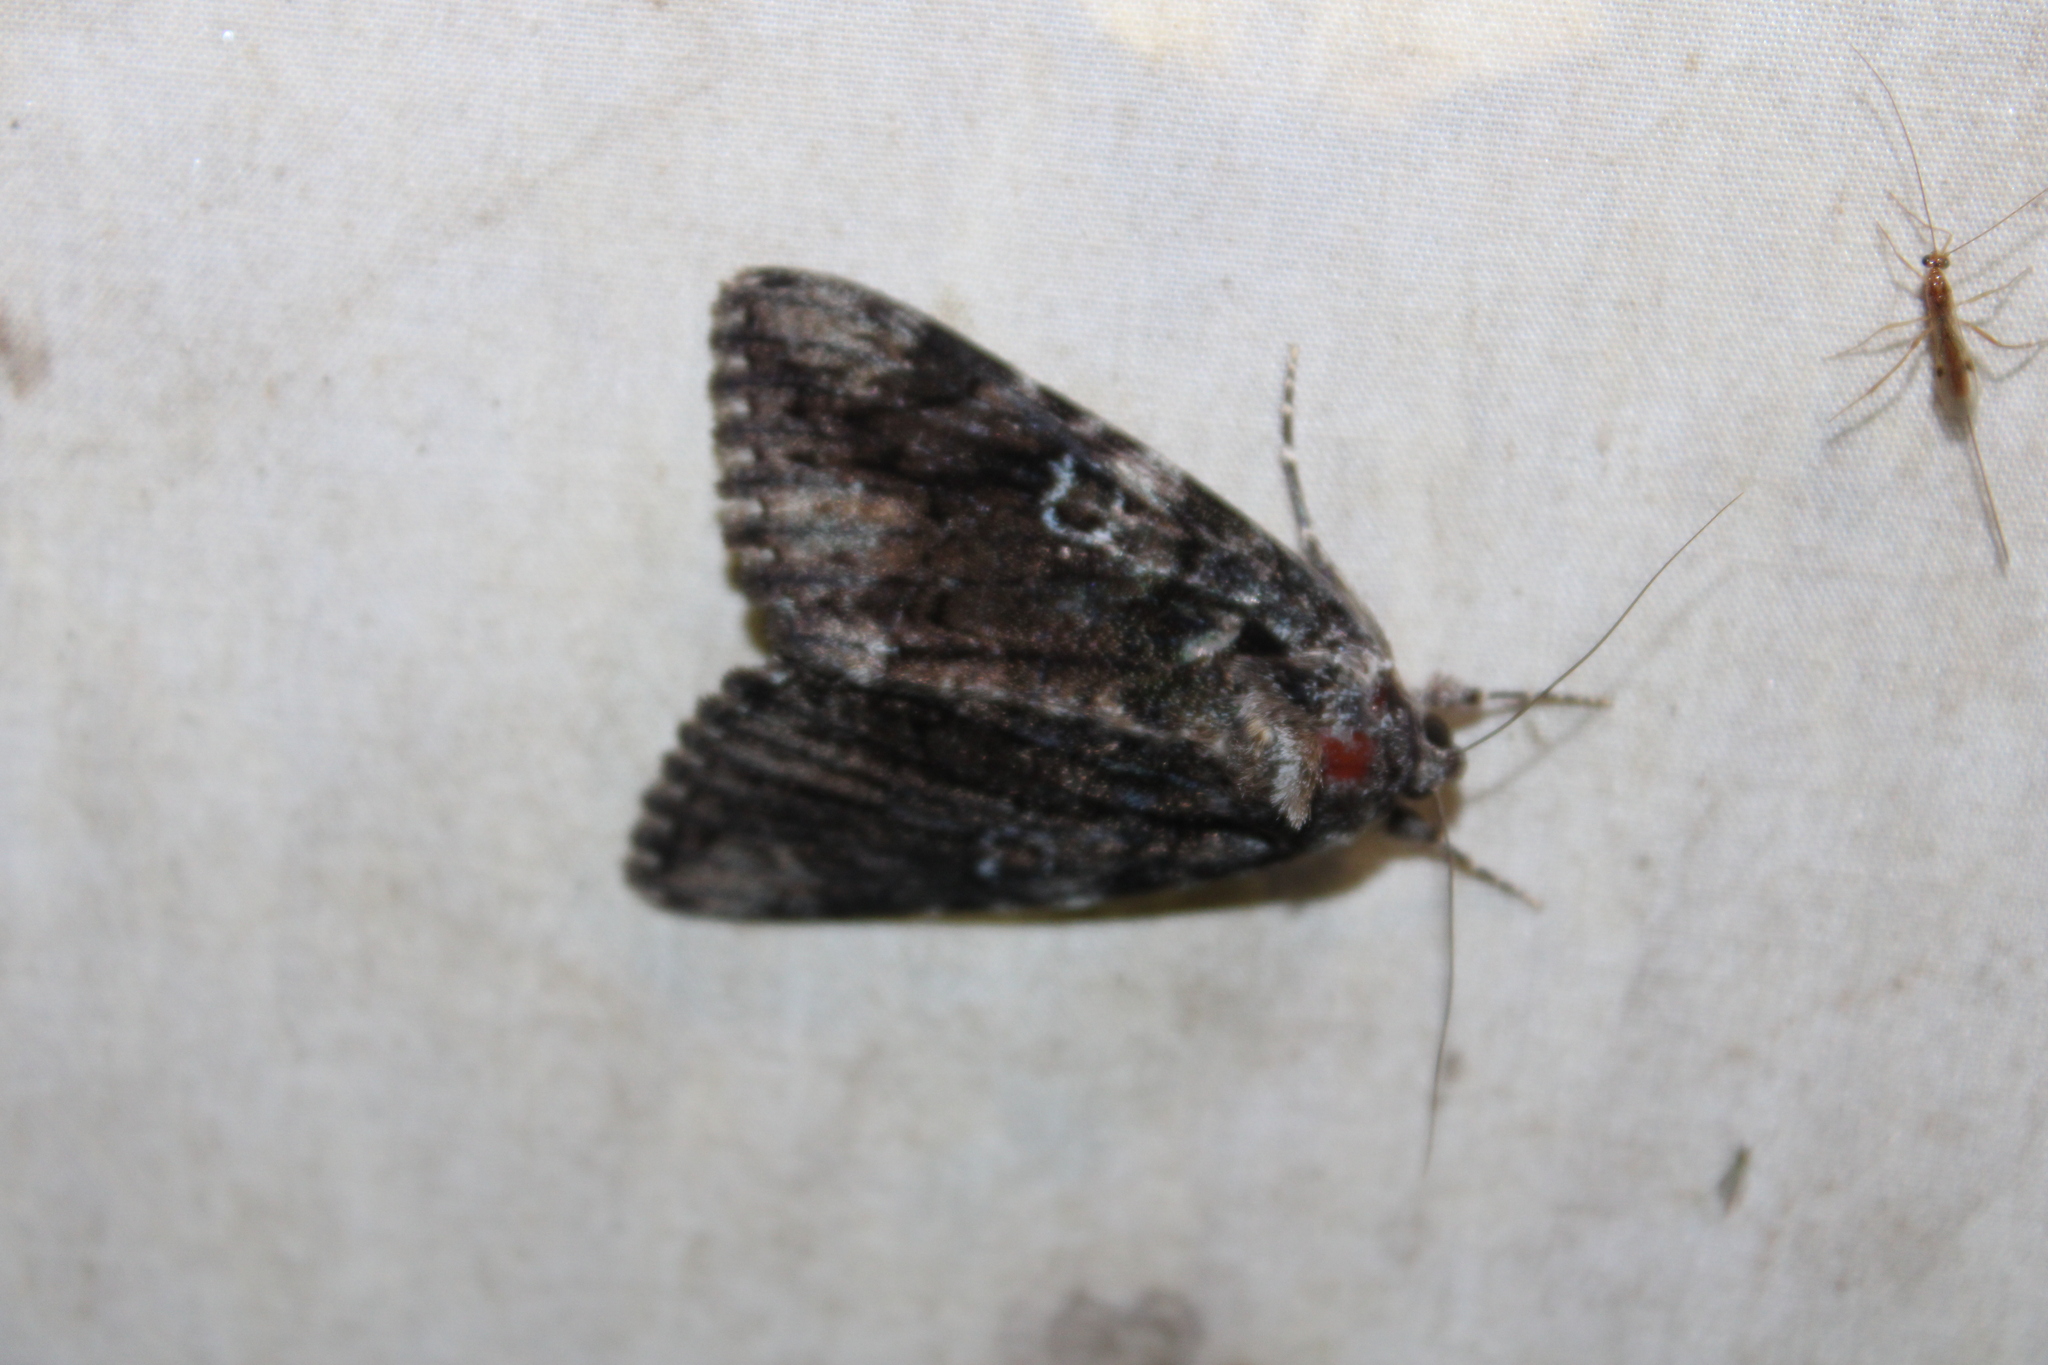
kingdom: Animalia
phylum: Arthropoda
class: Insecta
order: Lepidoptera
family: Erebidae
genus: Catocala
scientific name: Catocala ilia
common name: Ilia underwing
